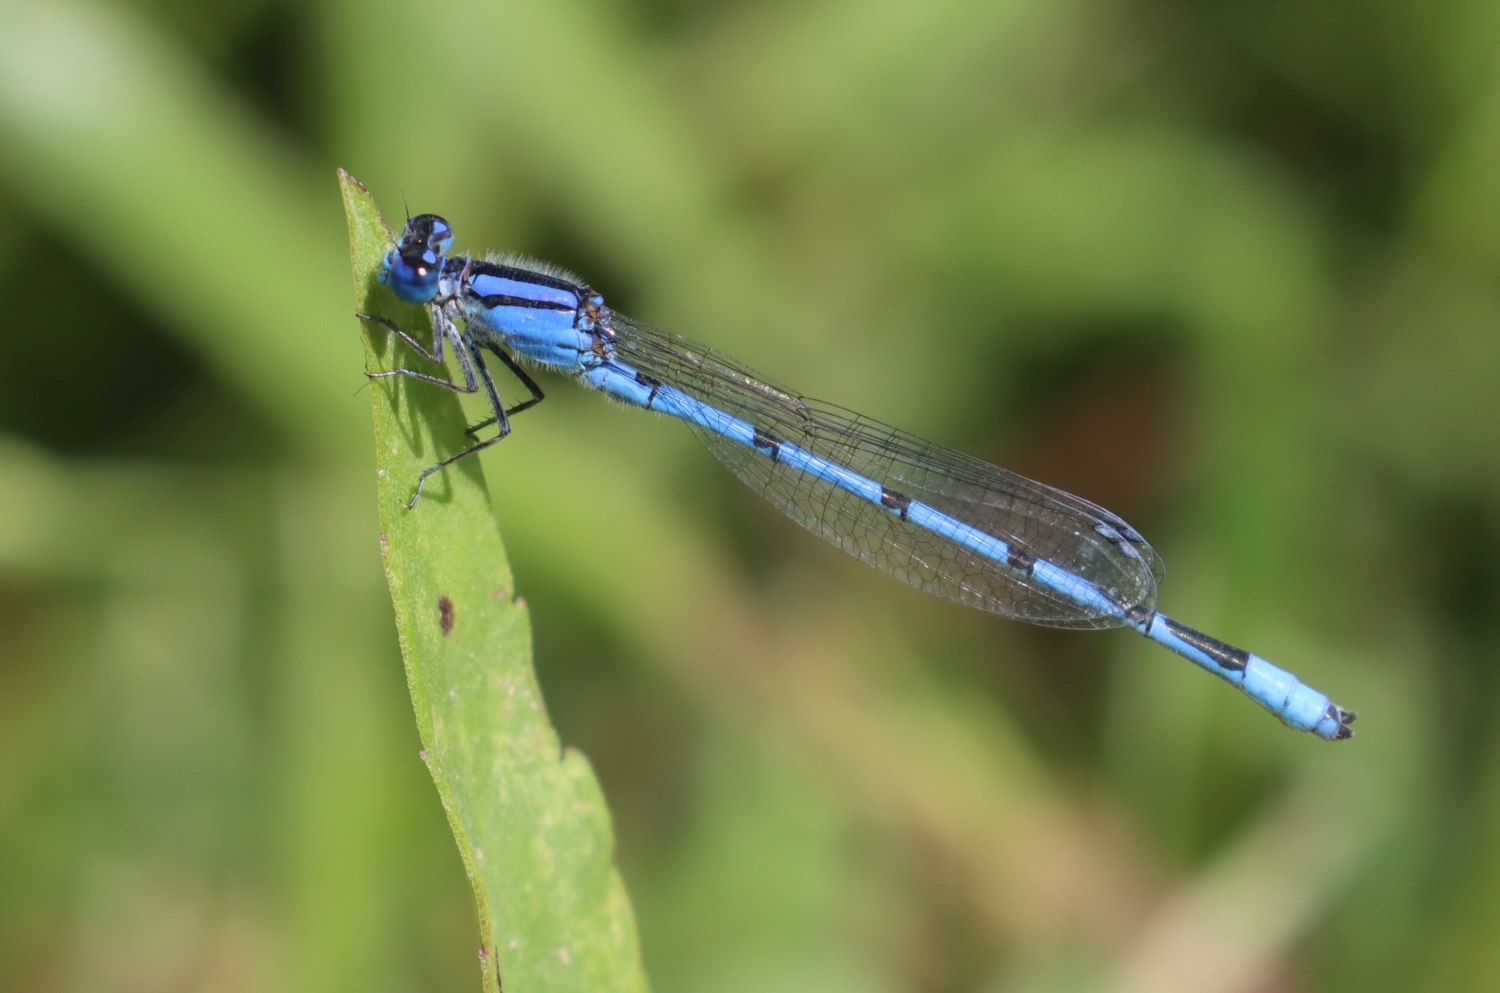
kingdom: Animalia
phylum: Arthropoda
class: Insecta
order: Odonata
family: Coenagrionidae
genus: Enallagma
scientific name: Enallagma civile
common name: Damselfly
